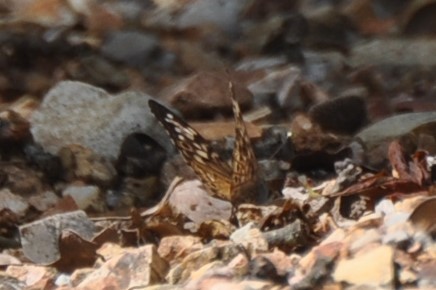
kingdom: Animalia
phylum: Arthropoda
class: Insecta
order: Lepidoptera
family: Nymphalidae
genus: Asterocampa
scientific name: Asterocampa celtis
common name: Hackberry emperor
